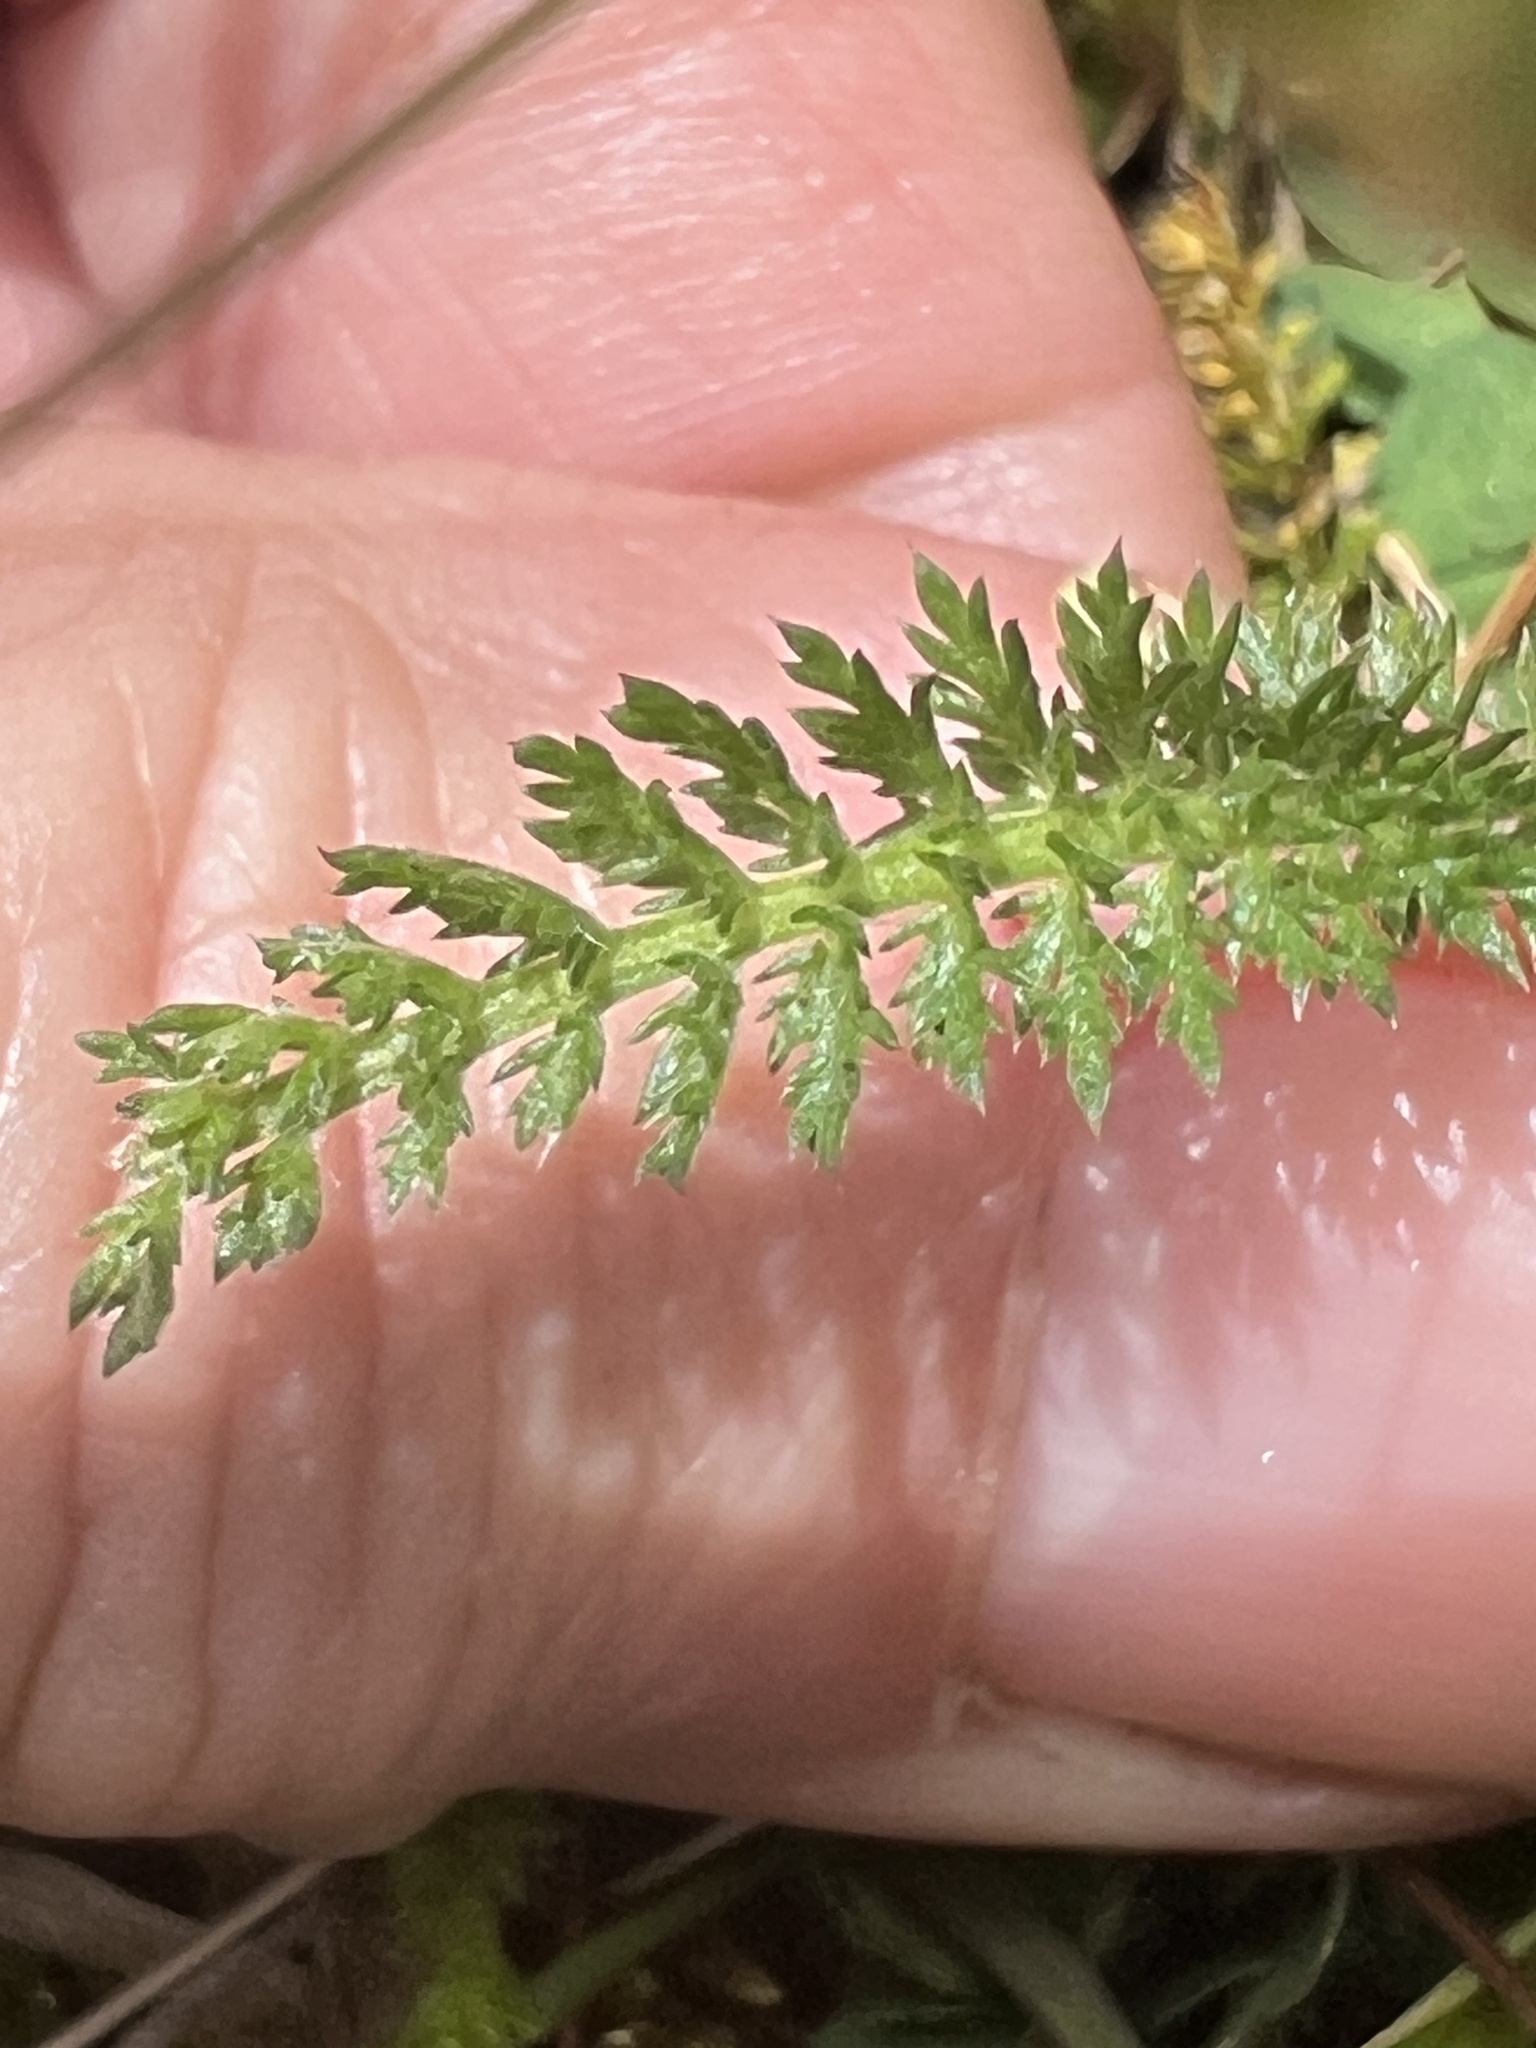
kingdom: Plantae
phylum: Tracheophyta
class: Magnoliopsida
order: Asterales
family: Asteraceae
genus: Achillea
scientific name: Achillea millefolium
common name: Yarrow
